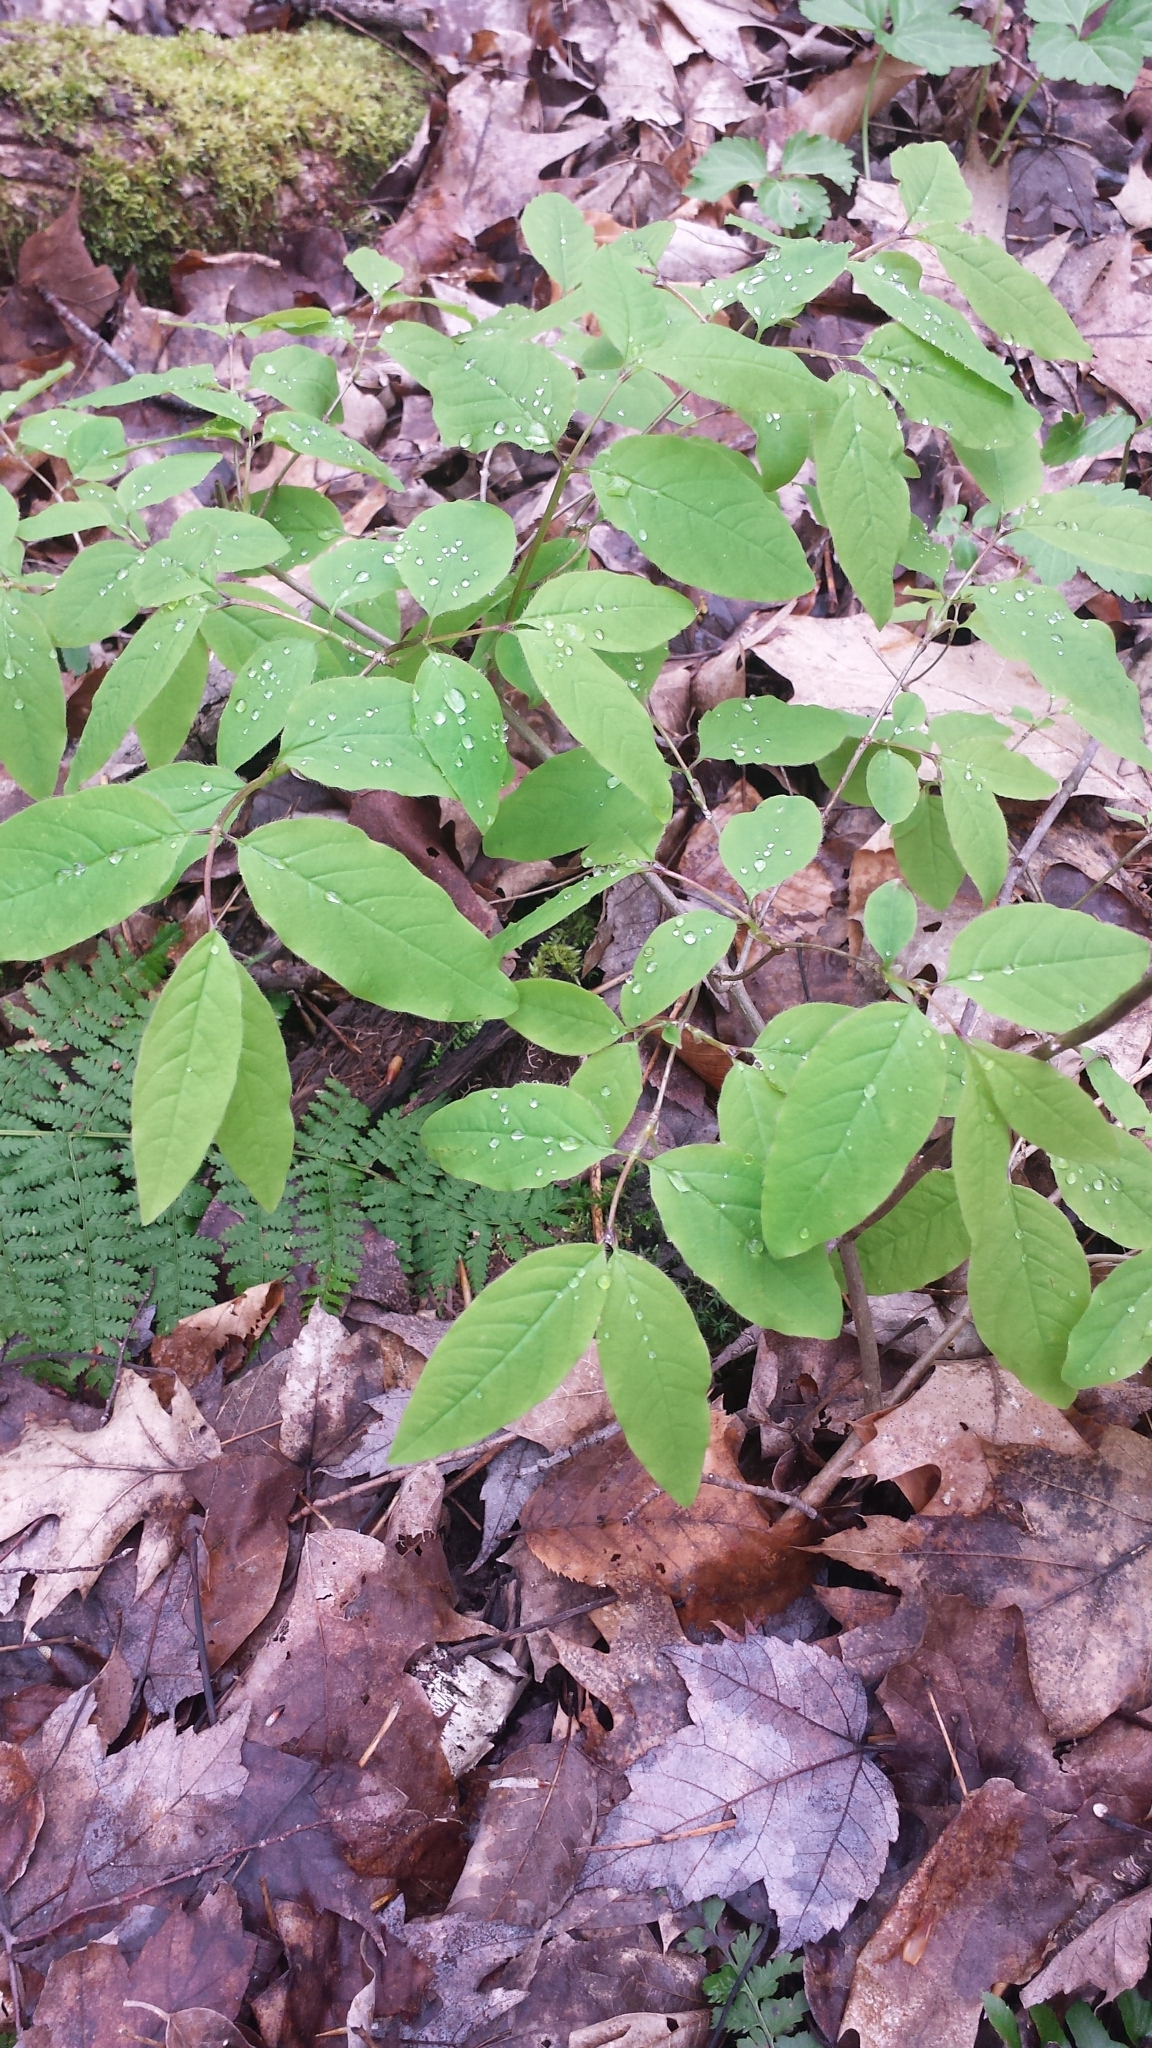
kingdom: Plantae
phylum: Tracheophyta
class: Magnoliopsida
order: Dipsacales
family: Caprifoliaceae
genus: Lonicera
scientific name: Lonicera canadensis
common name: American fly-honeysuckle
